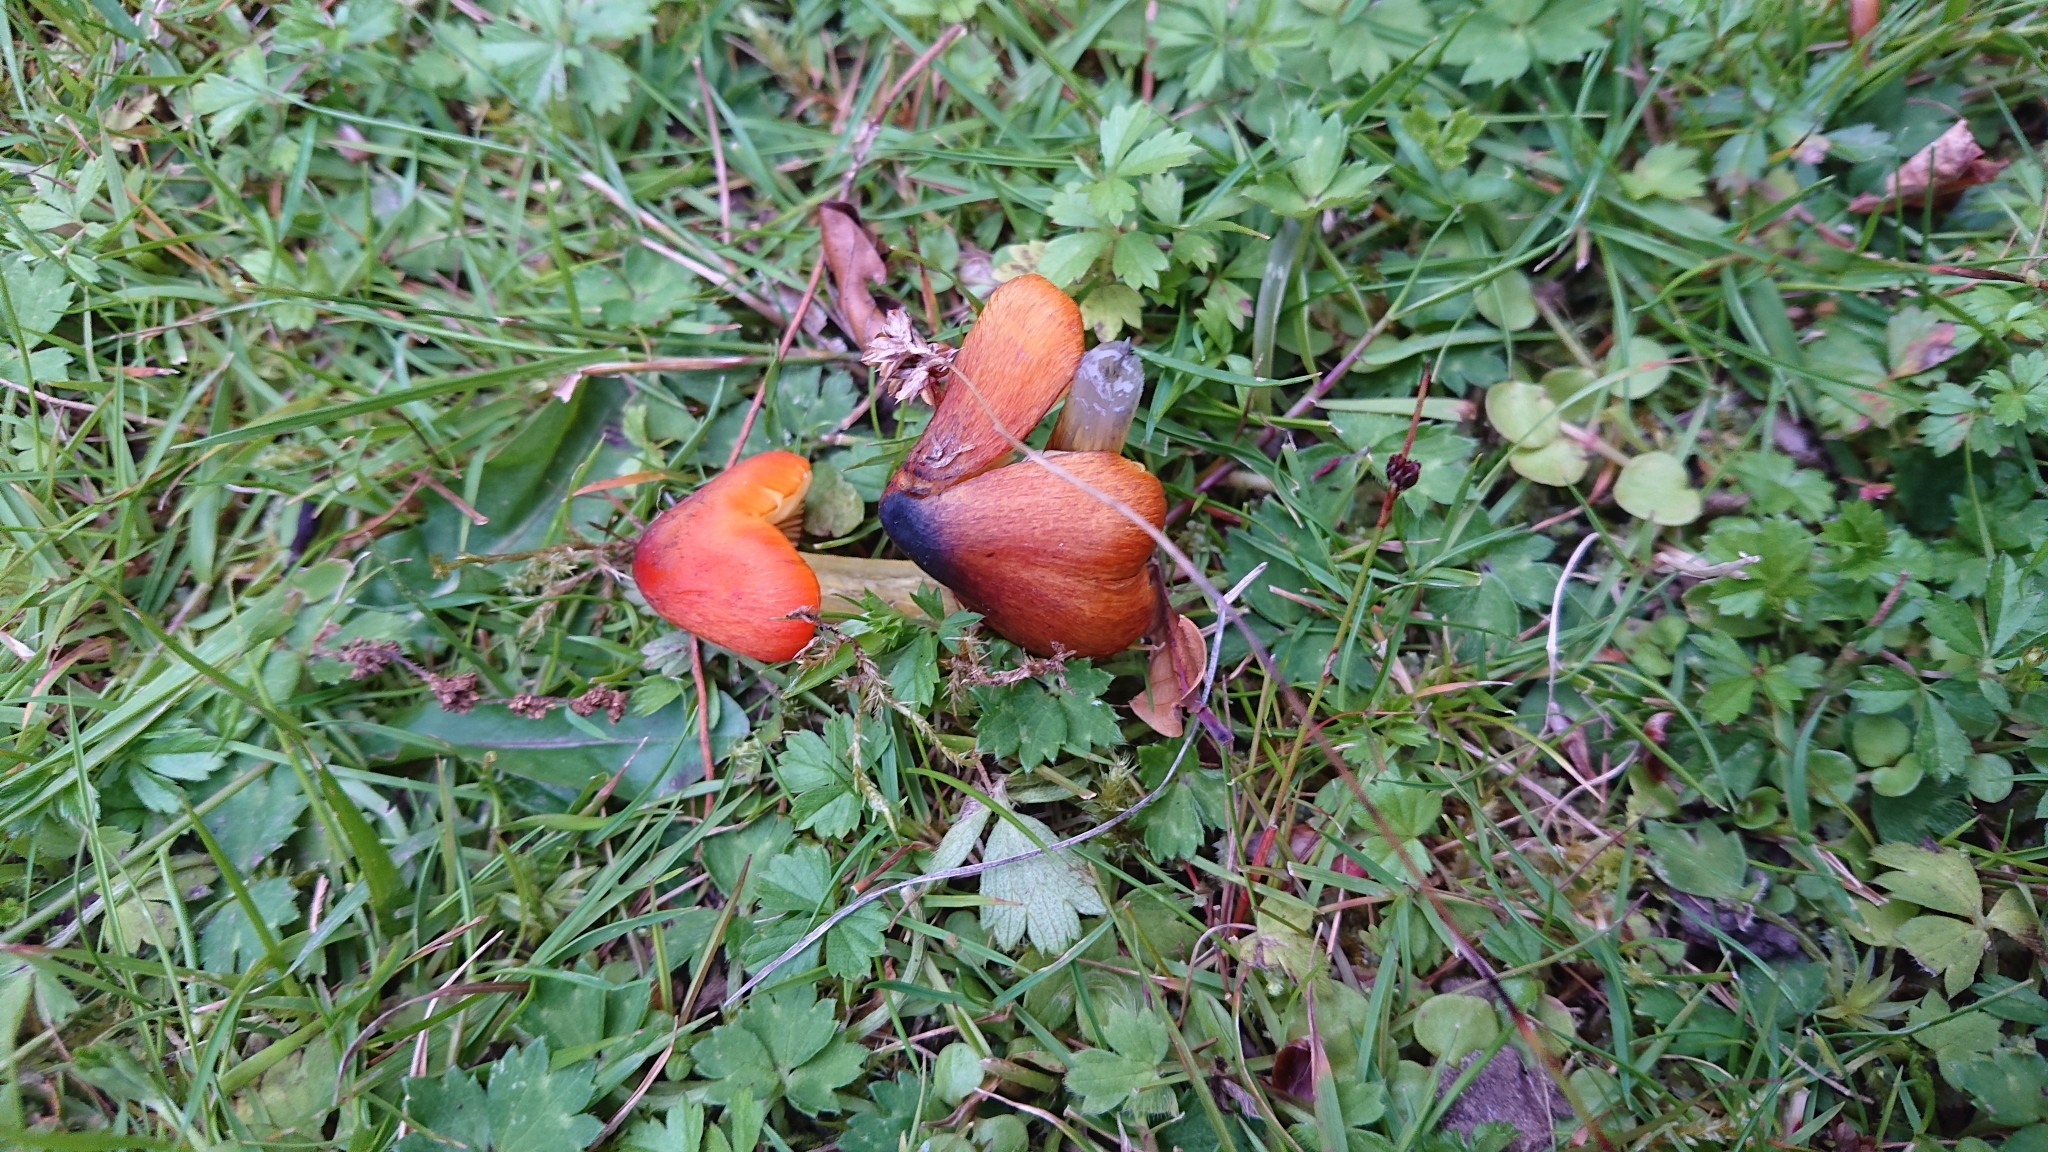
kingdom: Fungi
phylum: Basidiomycota
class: Agaricomycetes
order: Agaricales
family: Hygrophoraceae
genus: Hygrocybe
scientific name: Hygrocybe conica
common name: Blackening wax-cap
